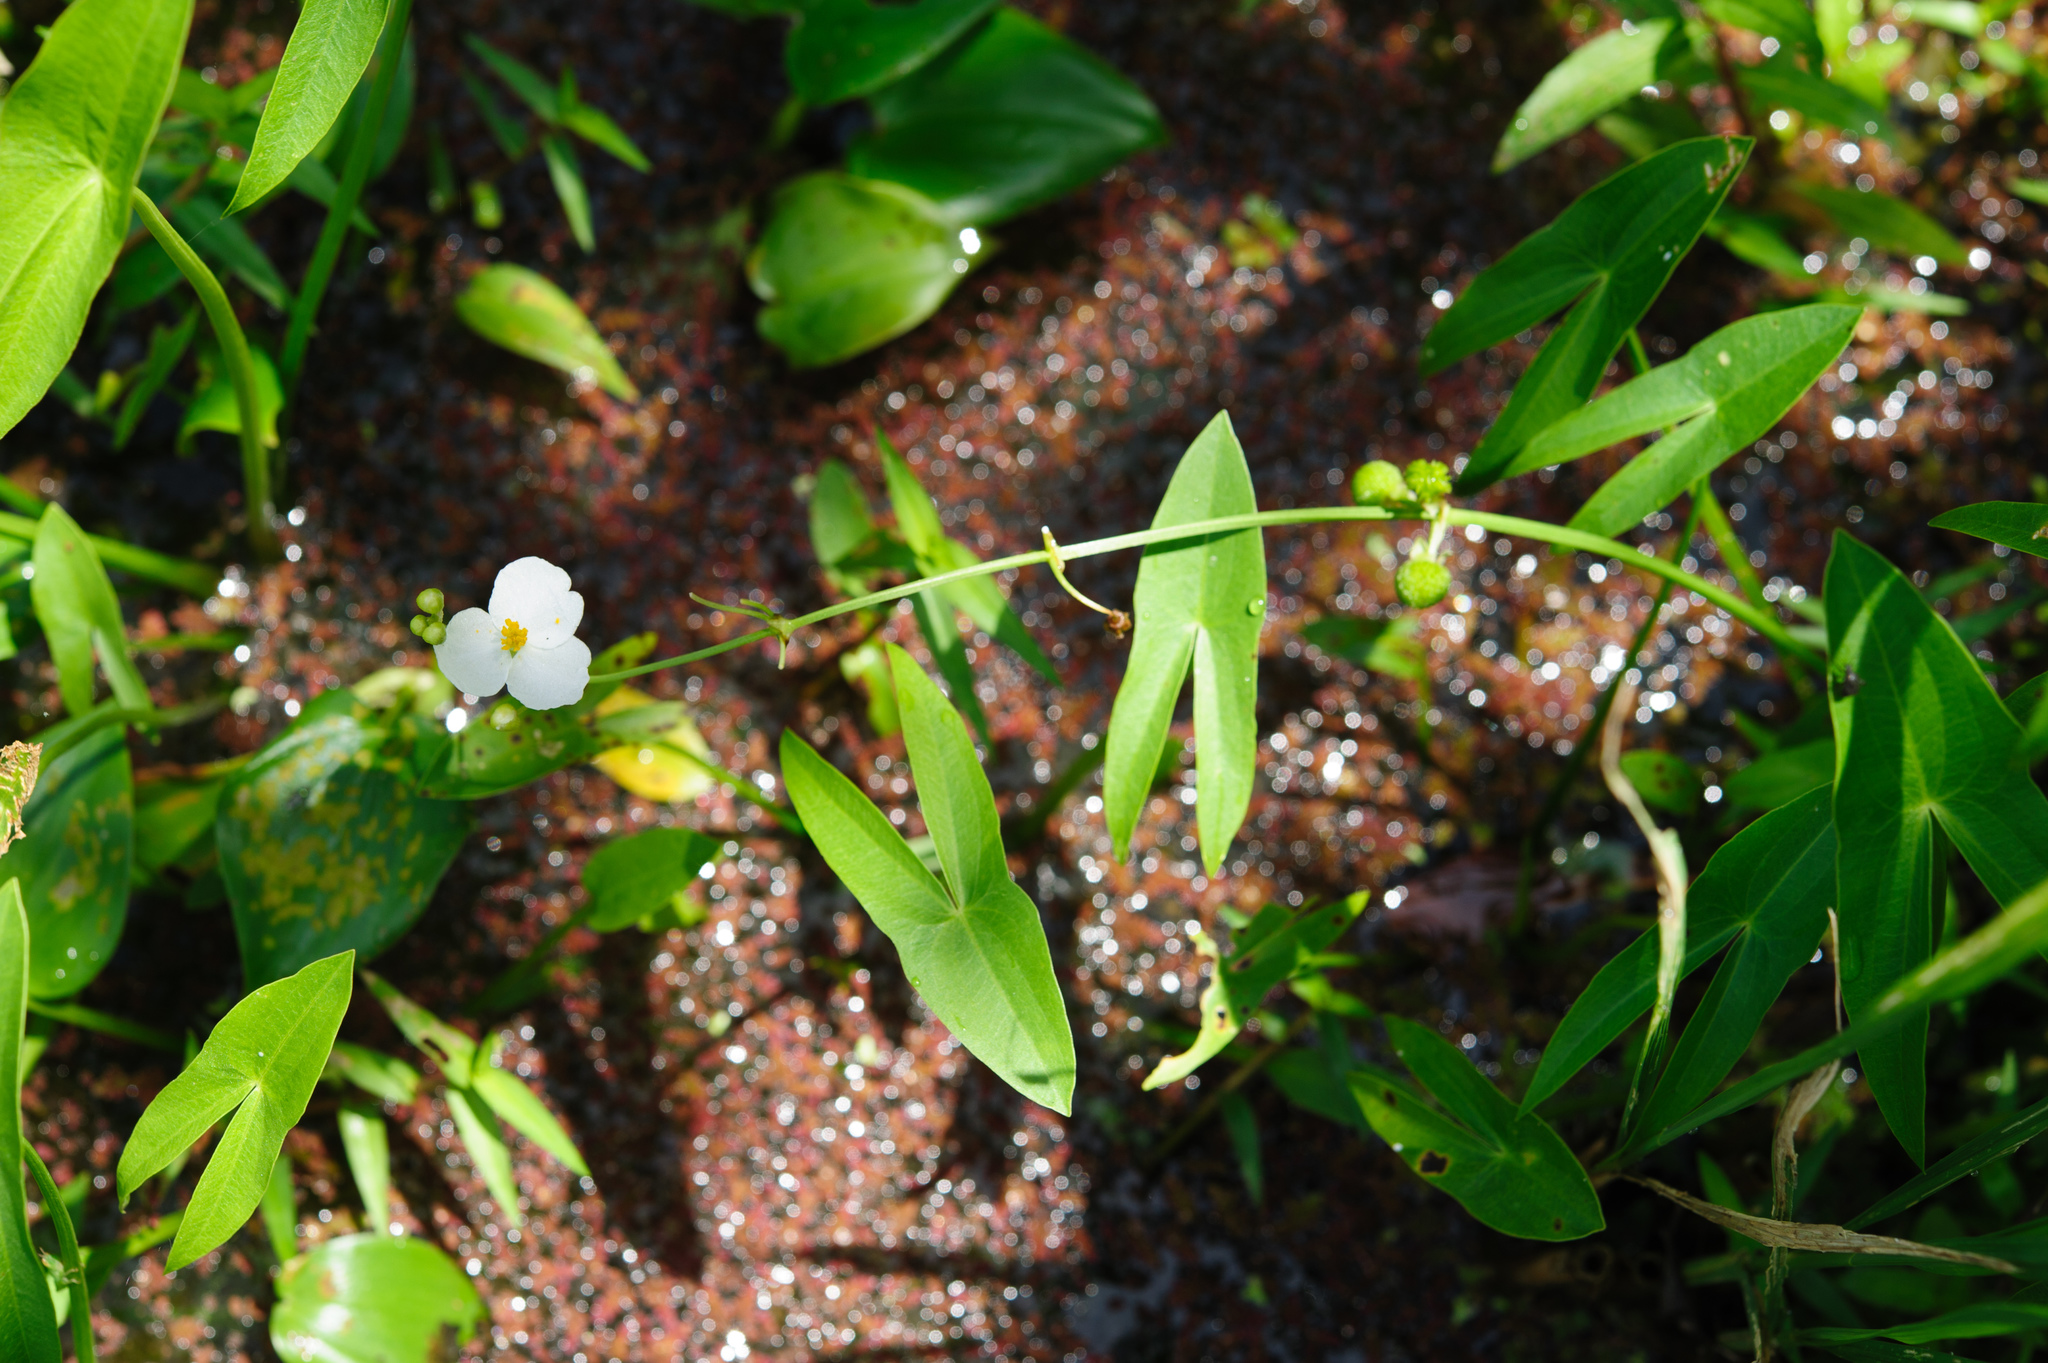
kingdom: Plantae
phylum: Tracheophyta
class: Liliopsida
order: Alismatales
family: Alismataceae
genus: Sagittaria
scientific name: Sagittaria trifolia
